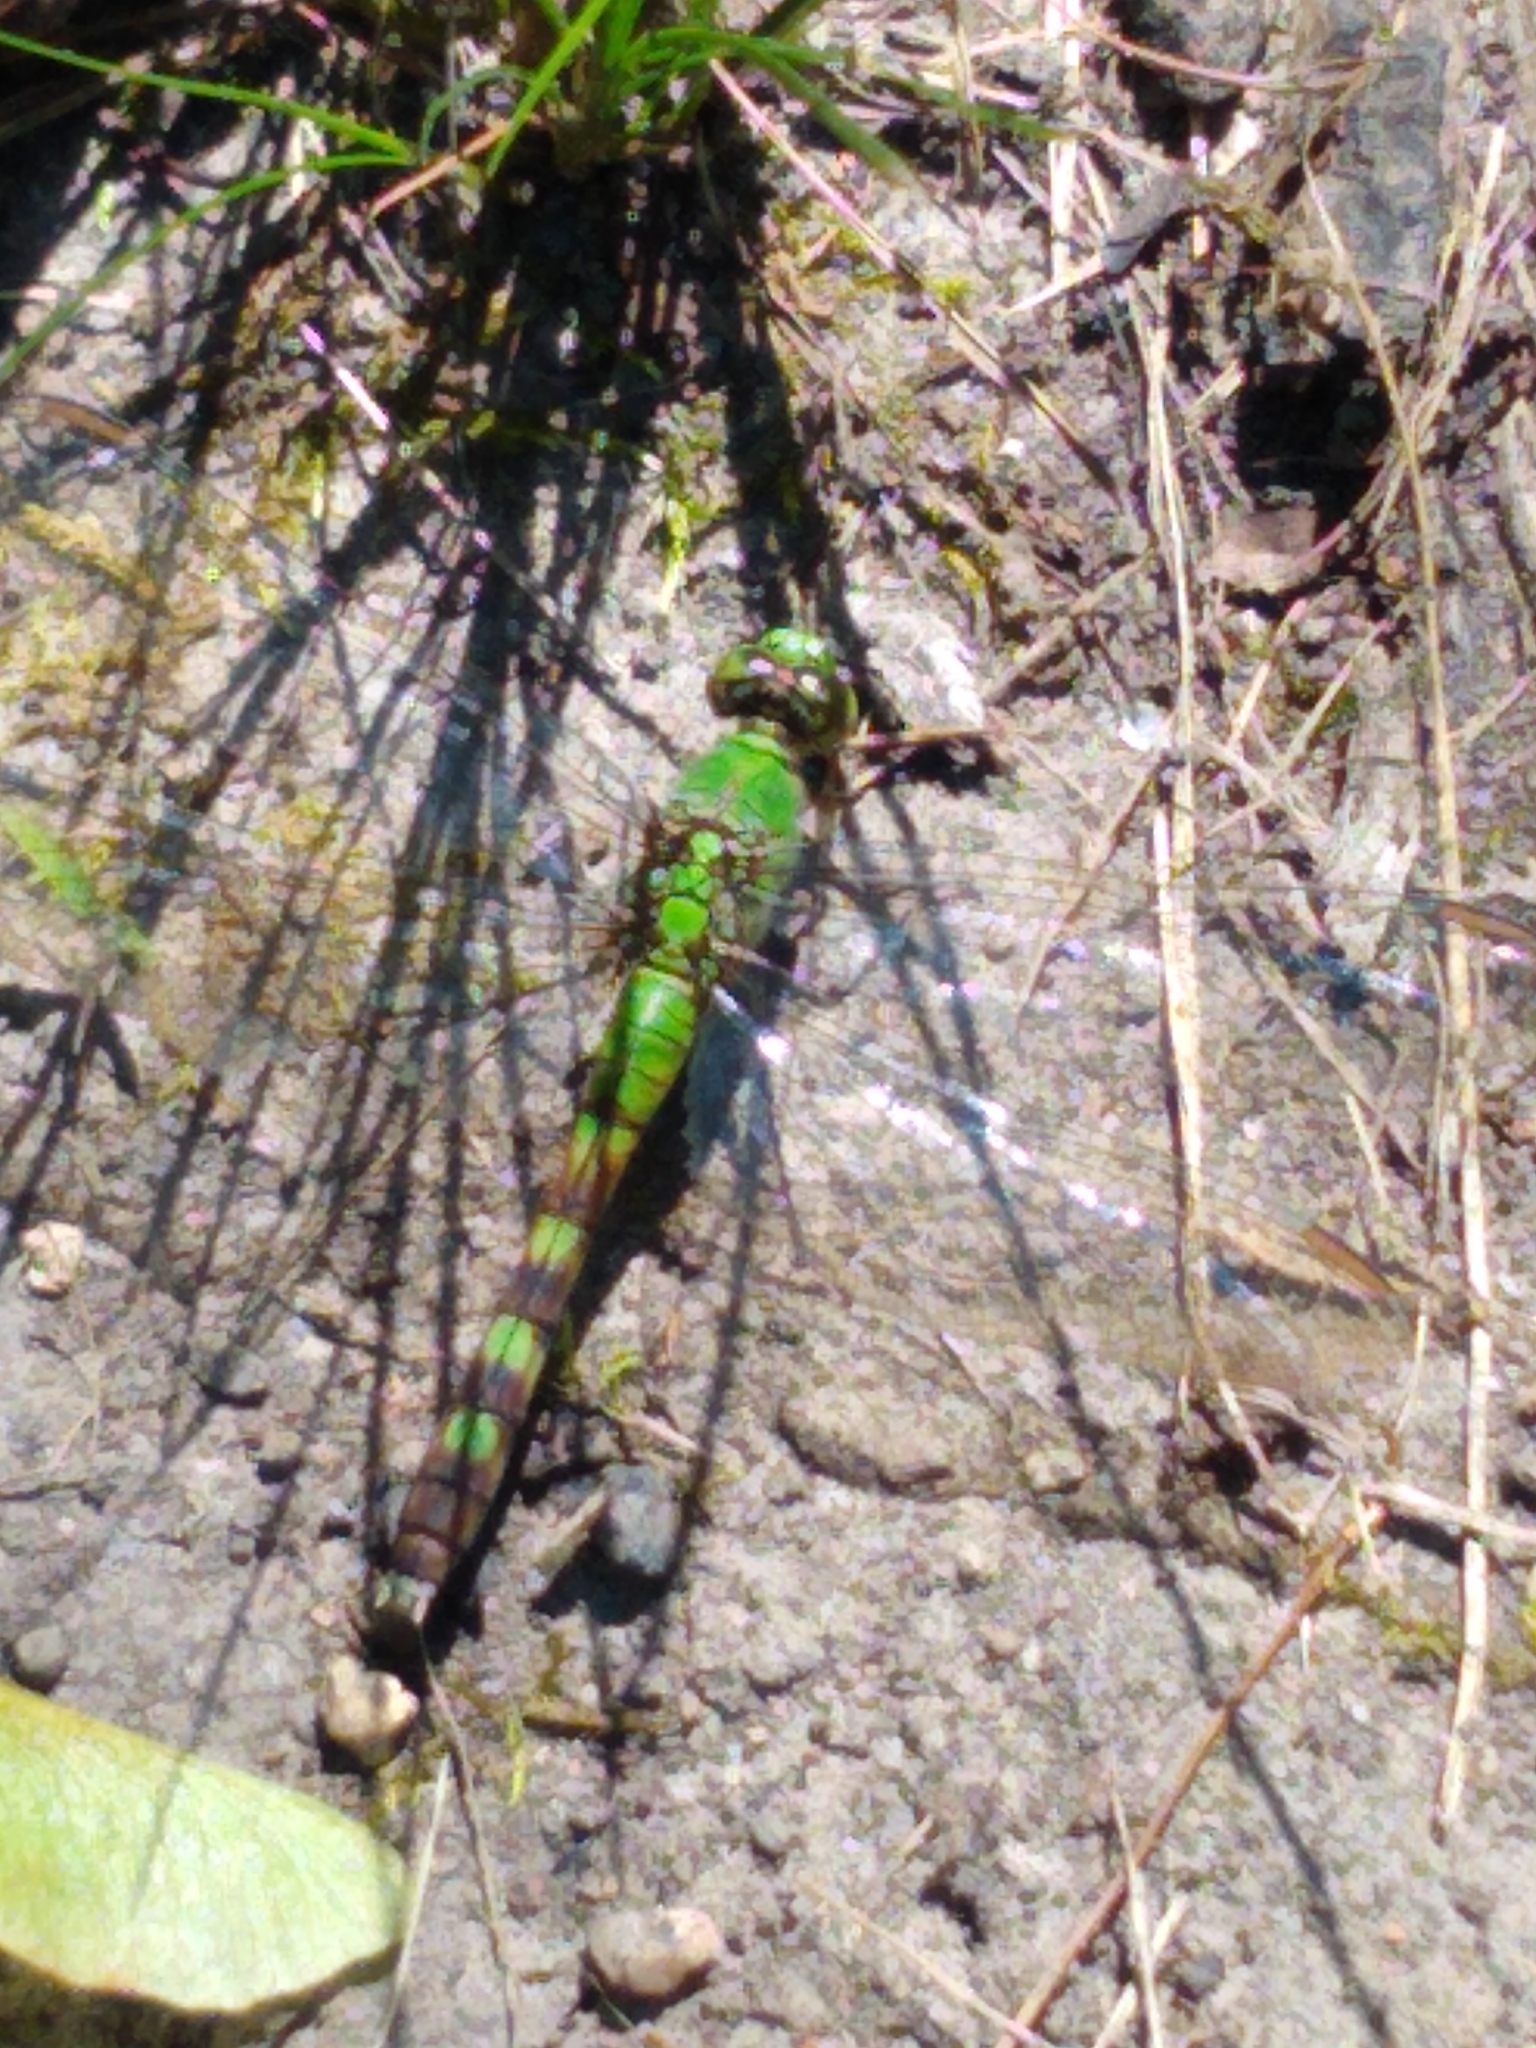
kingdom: Animalia
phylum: Arthropoda
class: Insecta
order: Odonata
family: Libellulidae
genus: Erythemis
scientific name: Erythemis simplicicollis
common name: Eastern pondhawk
